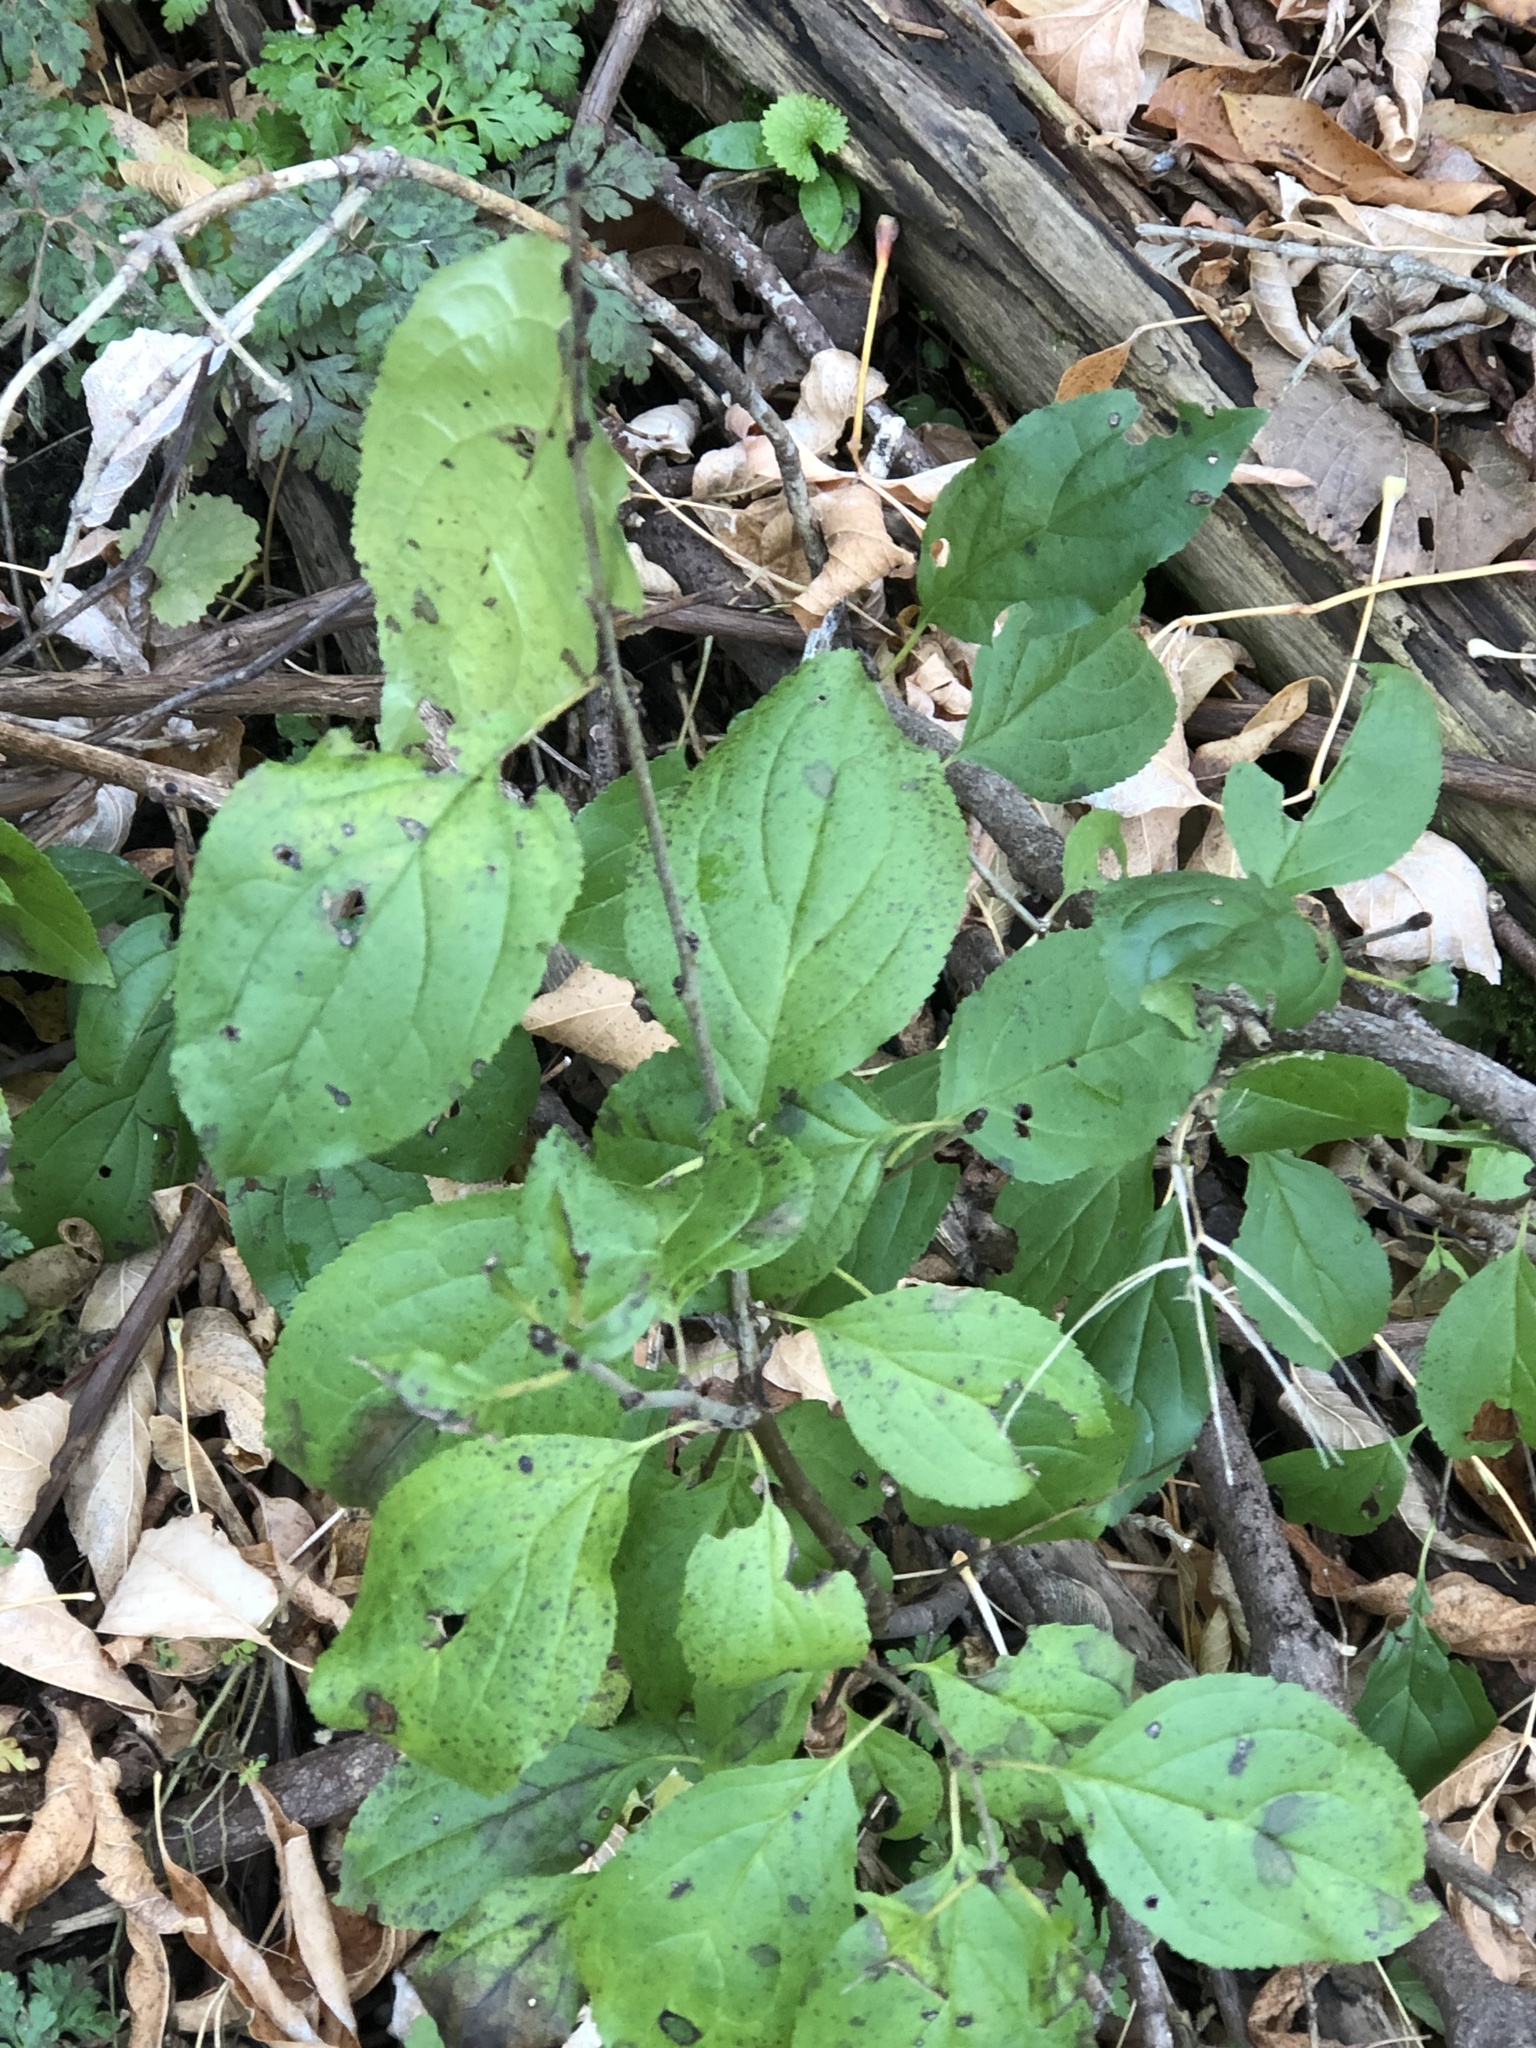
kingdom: Plantae
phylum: Tracheophyta
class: Magnoliopsida
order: Rosales
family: Rhamnaceae
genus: Rhamnus
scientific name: Rhamnus cathartica
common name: Common buckthorn
